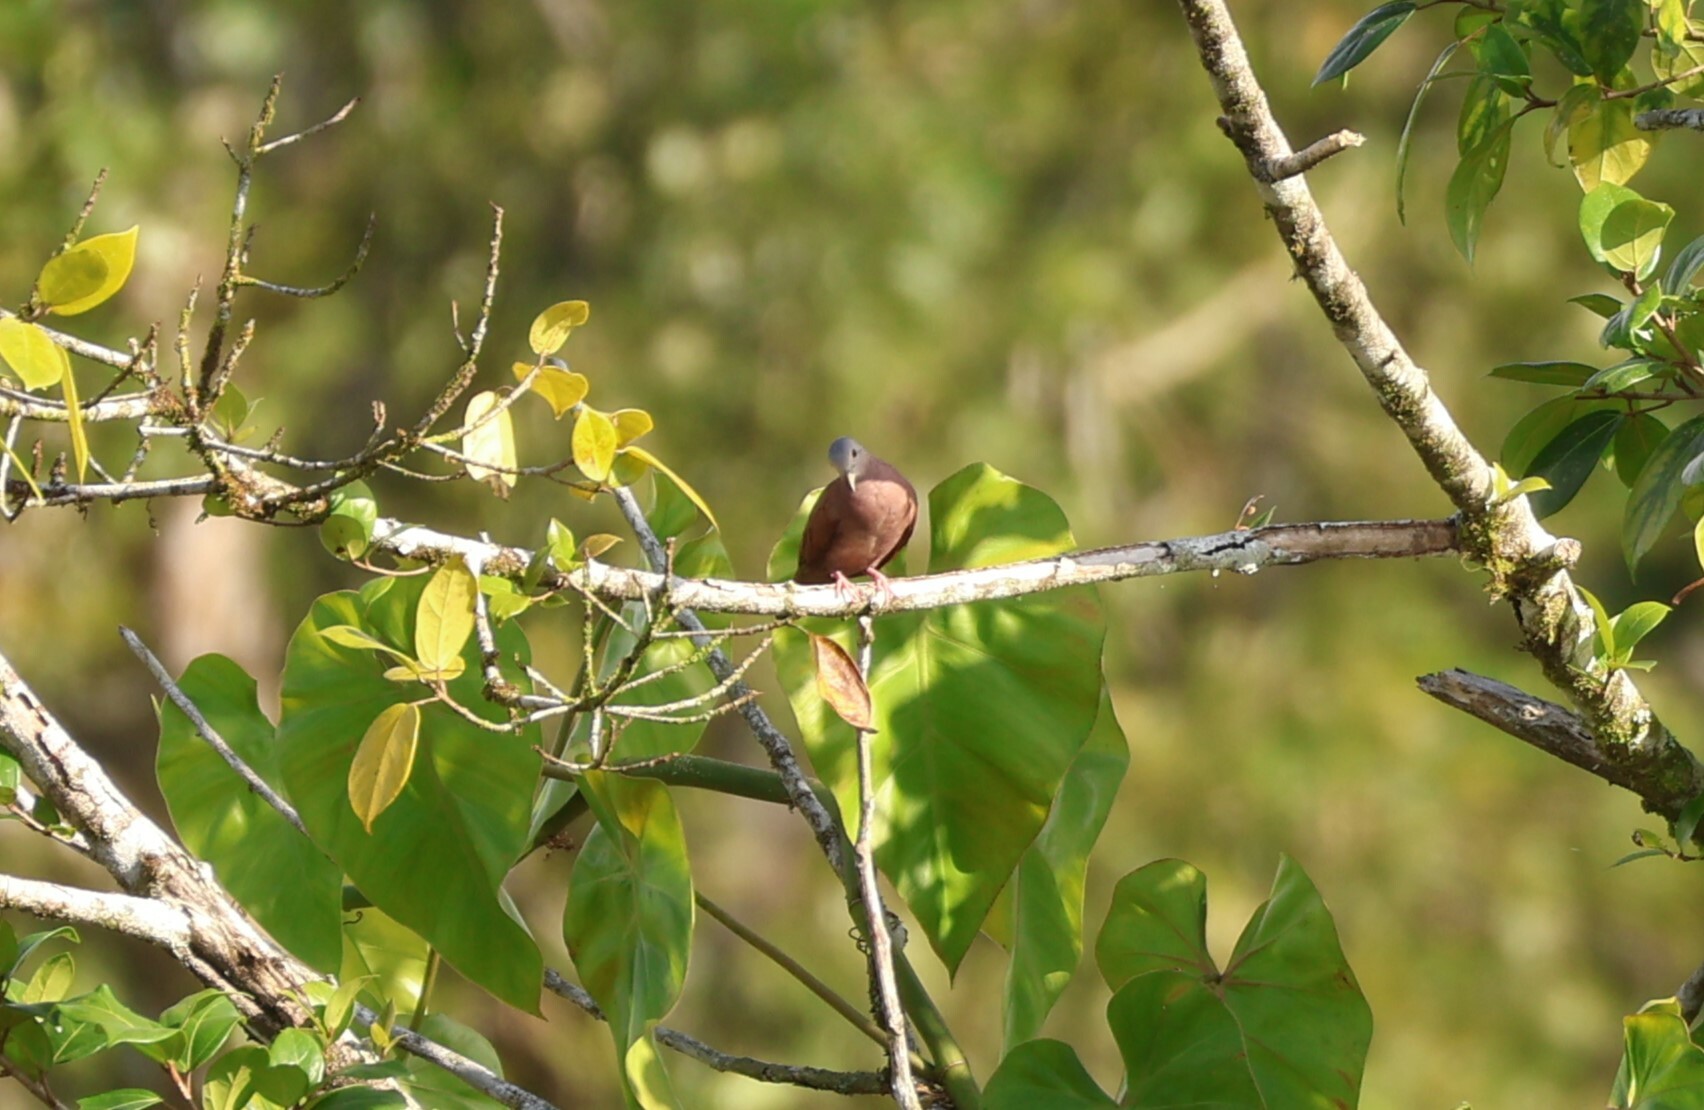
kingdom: Animalia
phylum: Chordata
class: Aves
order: Columbiformes
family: Columbidae
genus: Columbina
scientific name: Columbina talpacoti
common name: Ruddy ground dove
